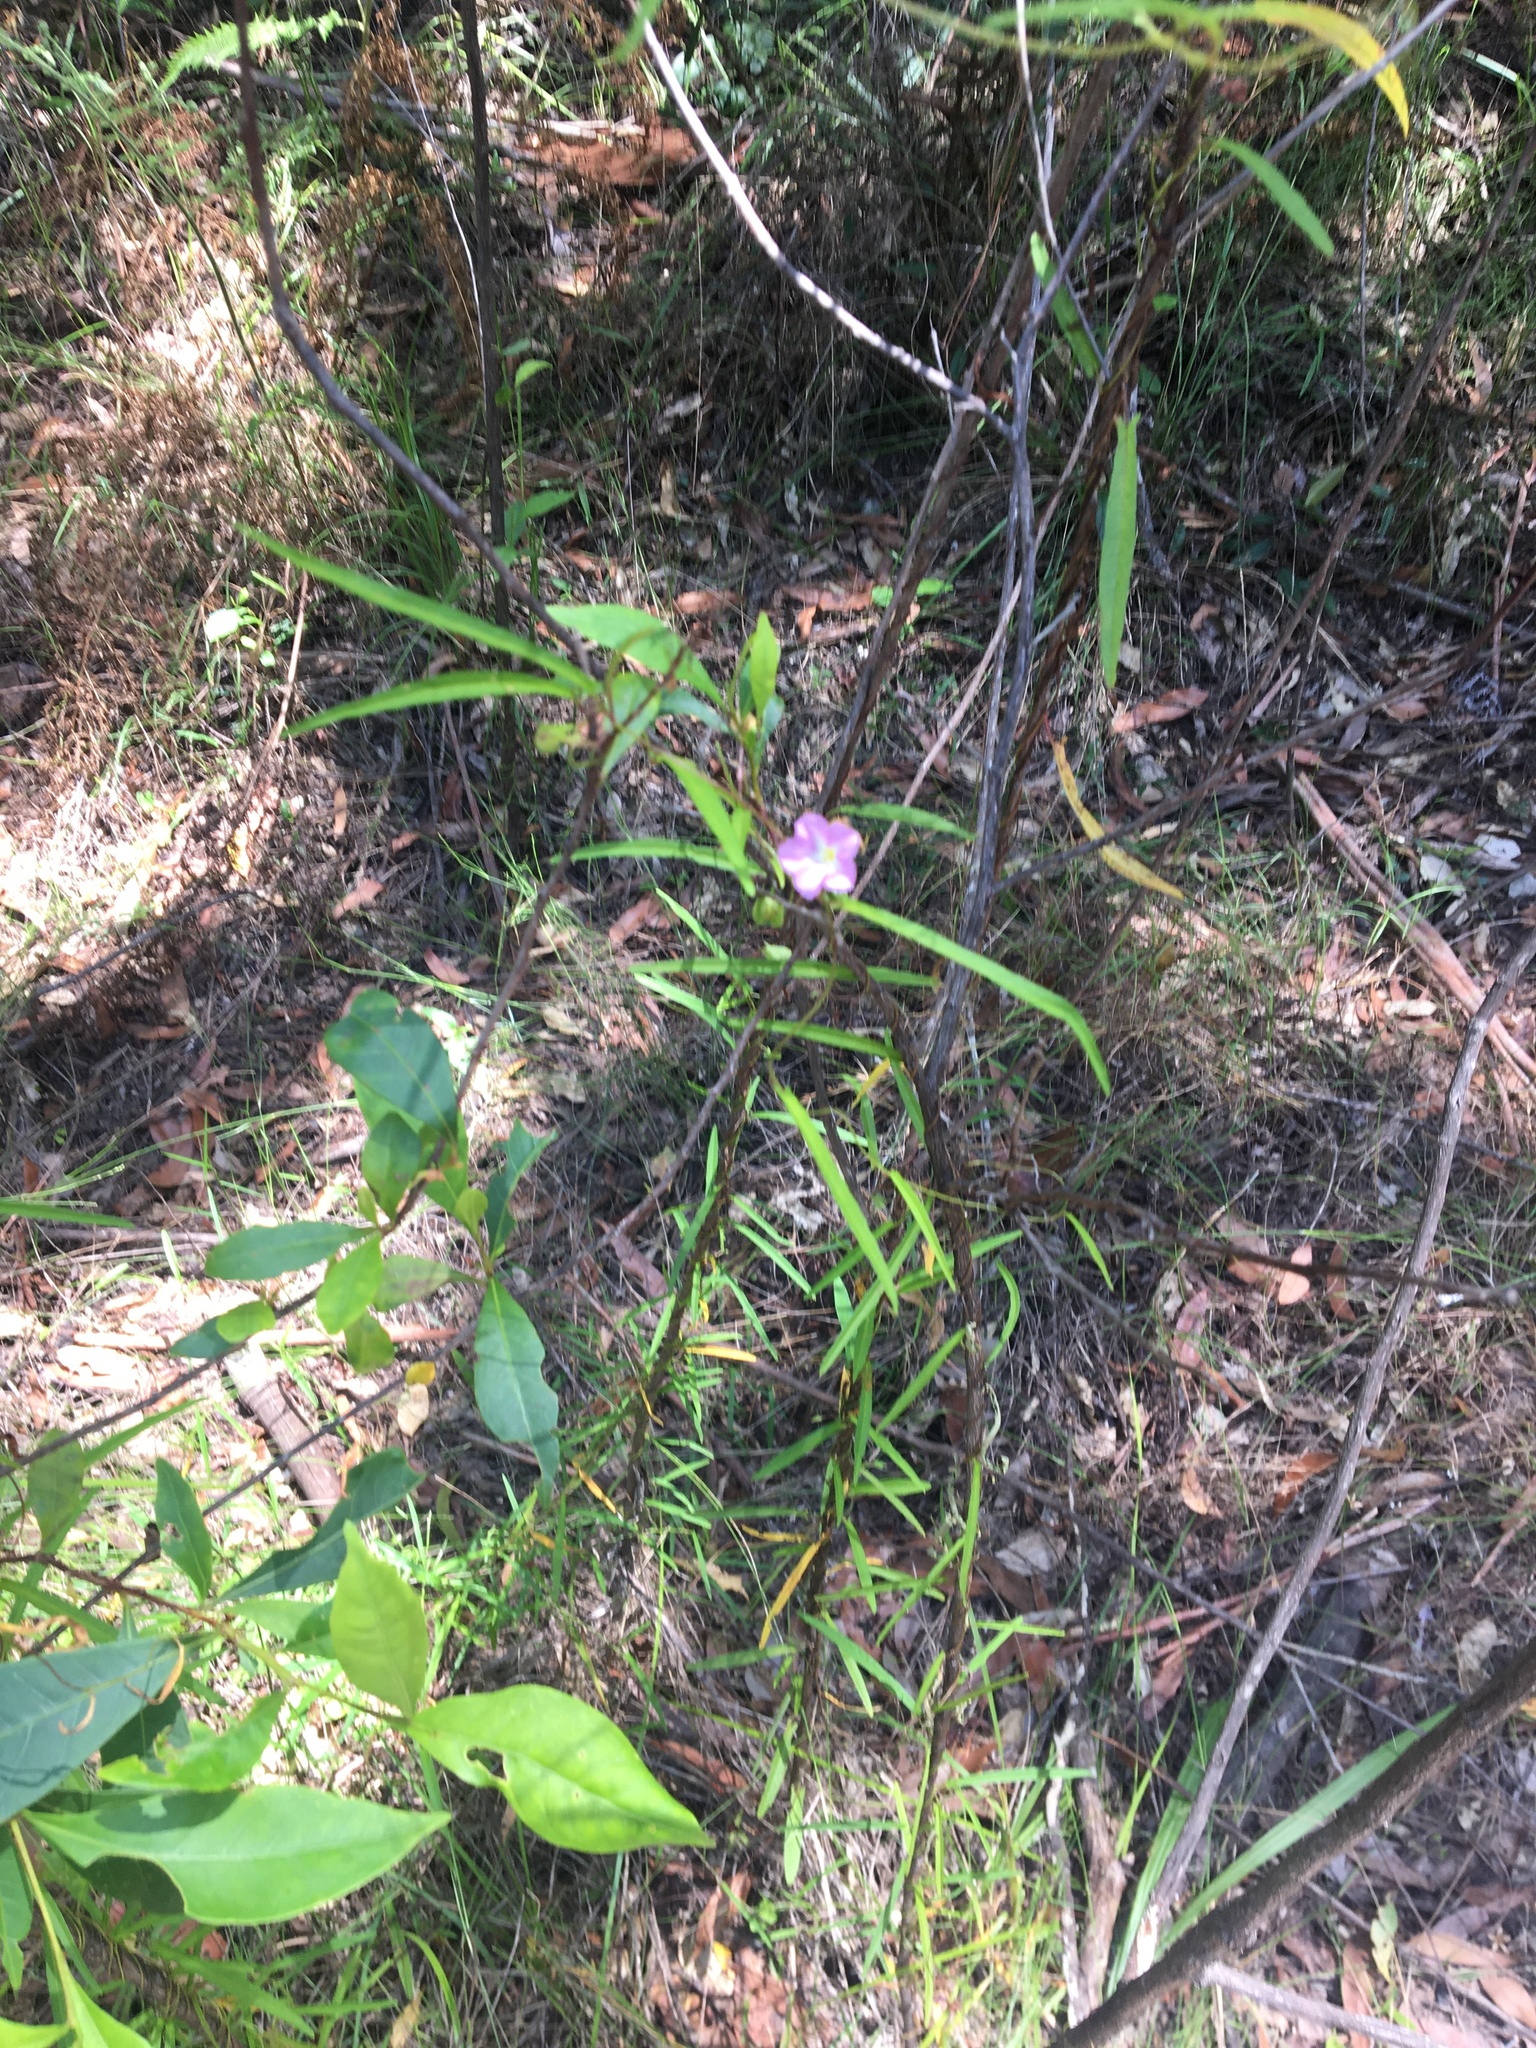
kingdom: Plantae
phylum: Tracheophyta
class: Magnoliopsida
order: Solanales
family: Convolvulaceae
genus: Polymeria
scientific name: Polymeria calycina
